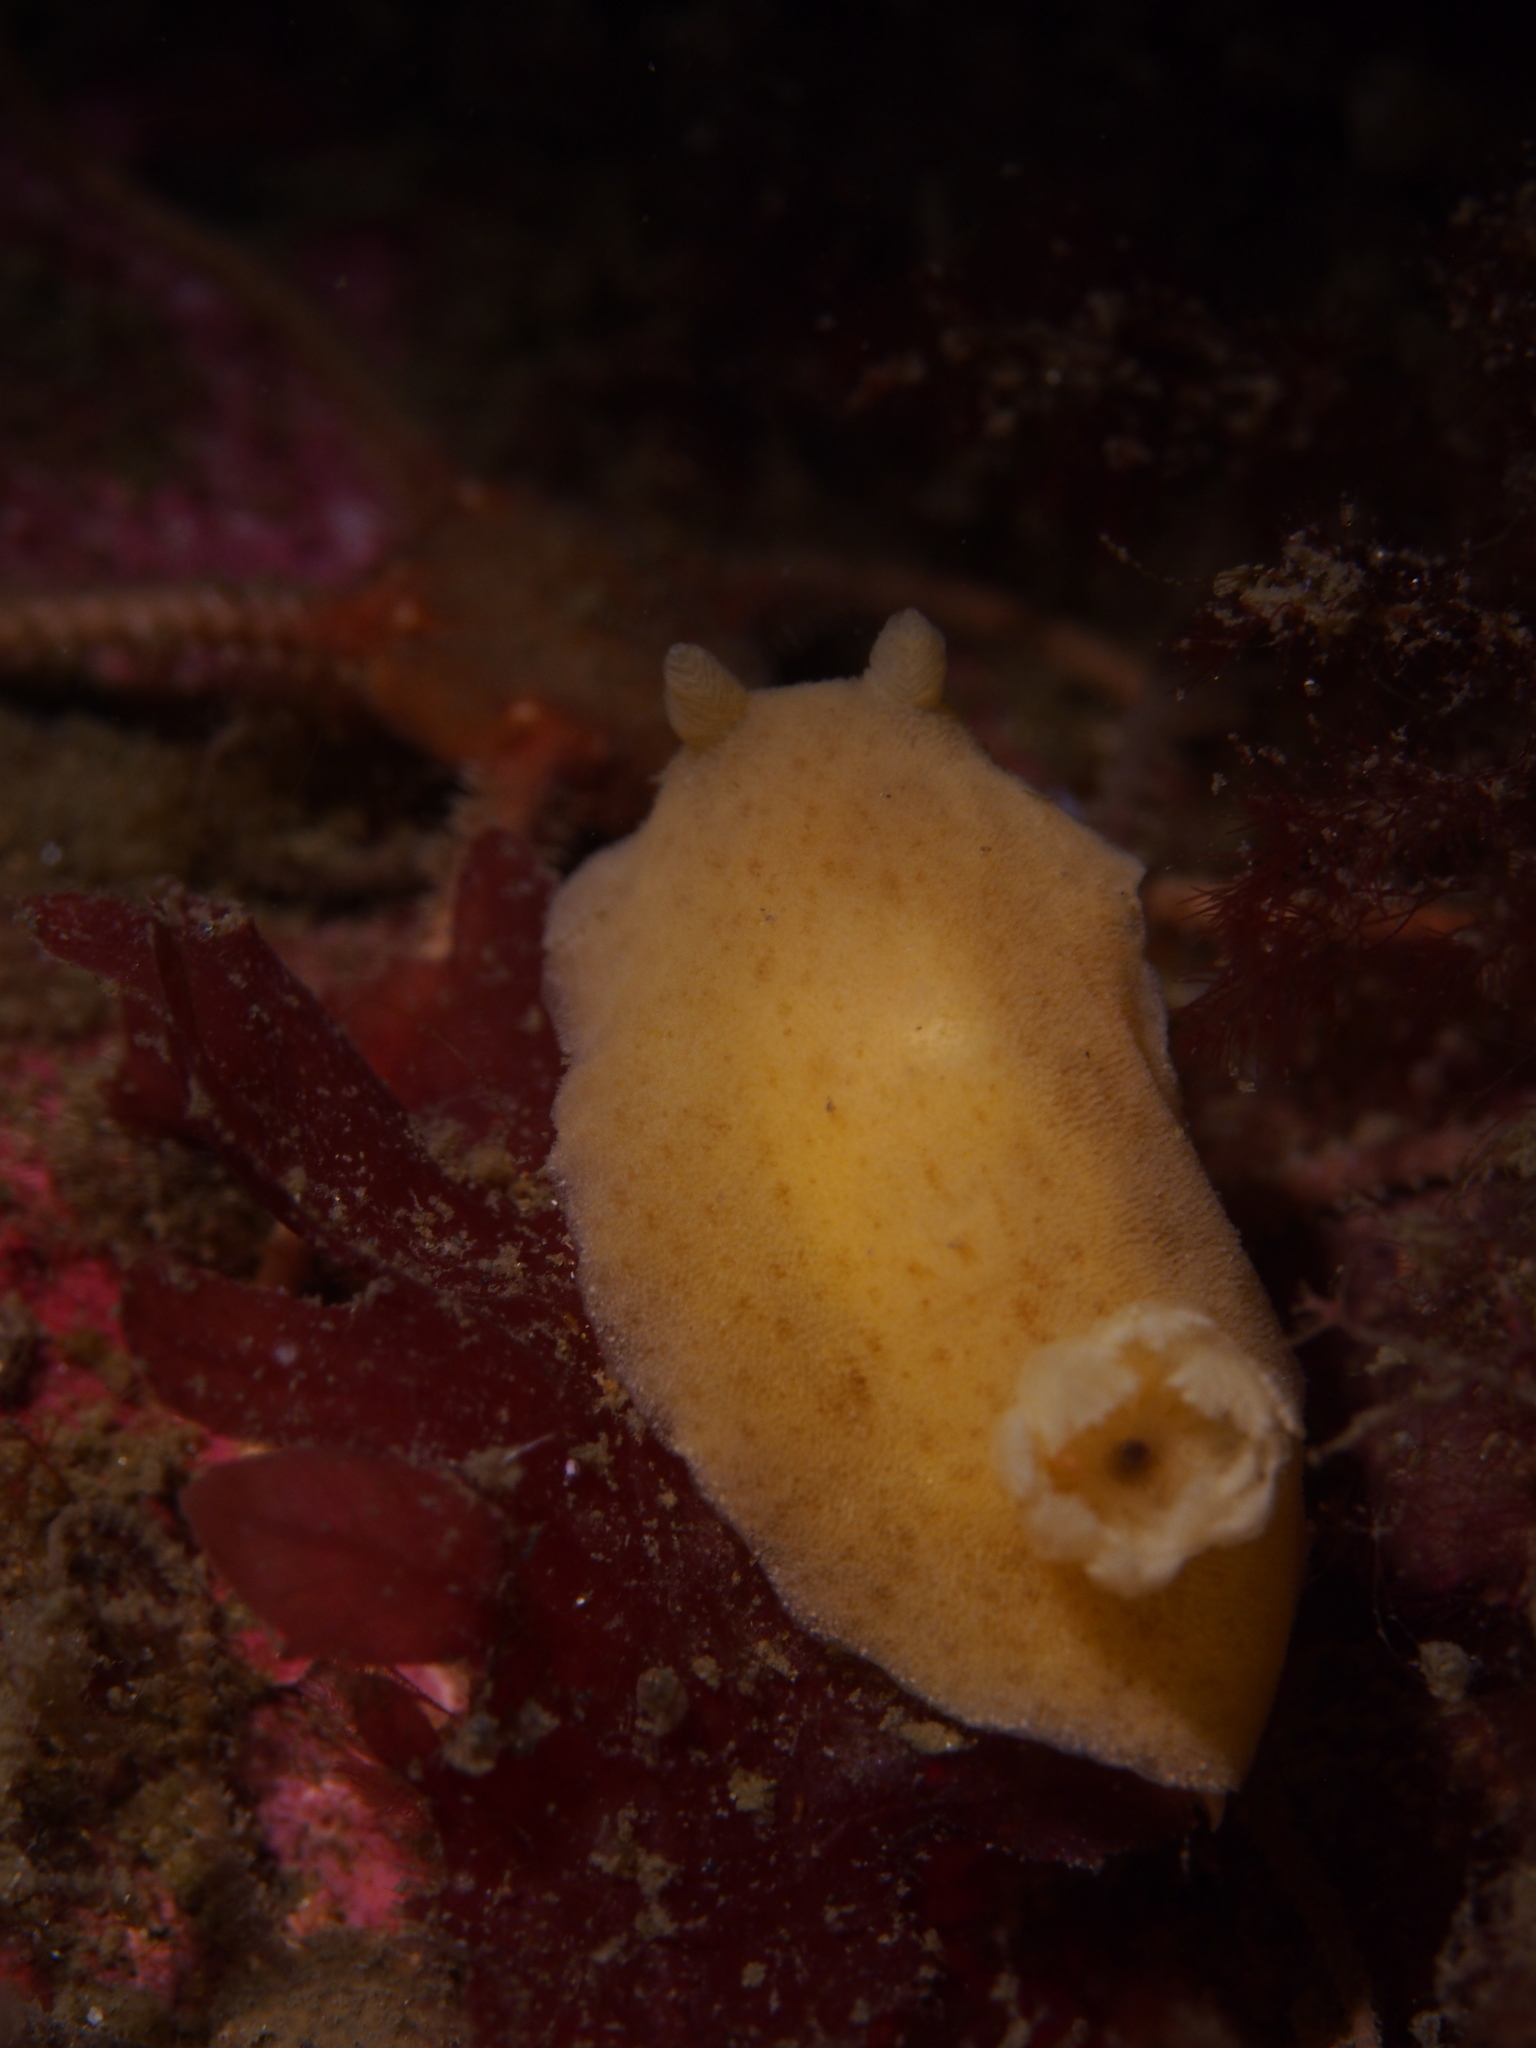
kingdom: Animalia
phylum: Mollusca
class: Gastropoda
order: Nudibranchia
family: Discodorididae
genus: Jorunna
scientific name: Jorunna tomentosa
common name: Grey sea slug
